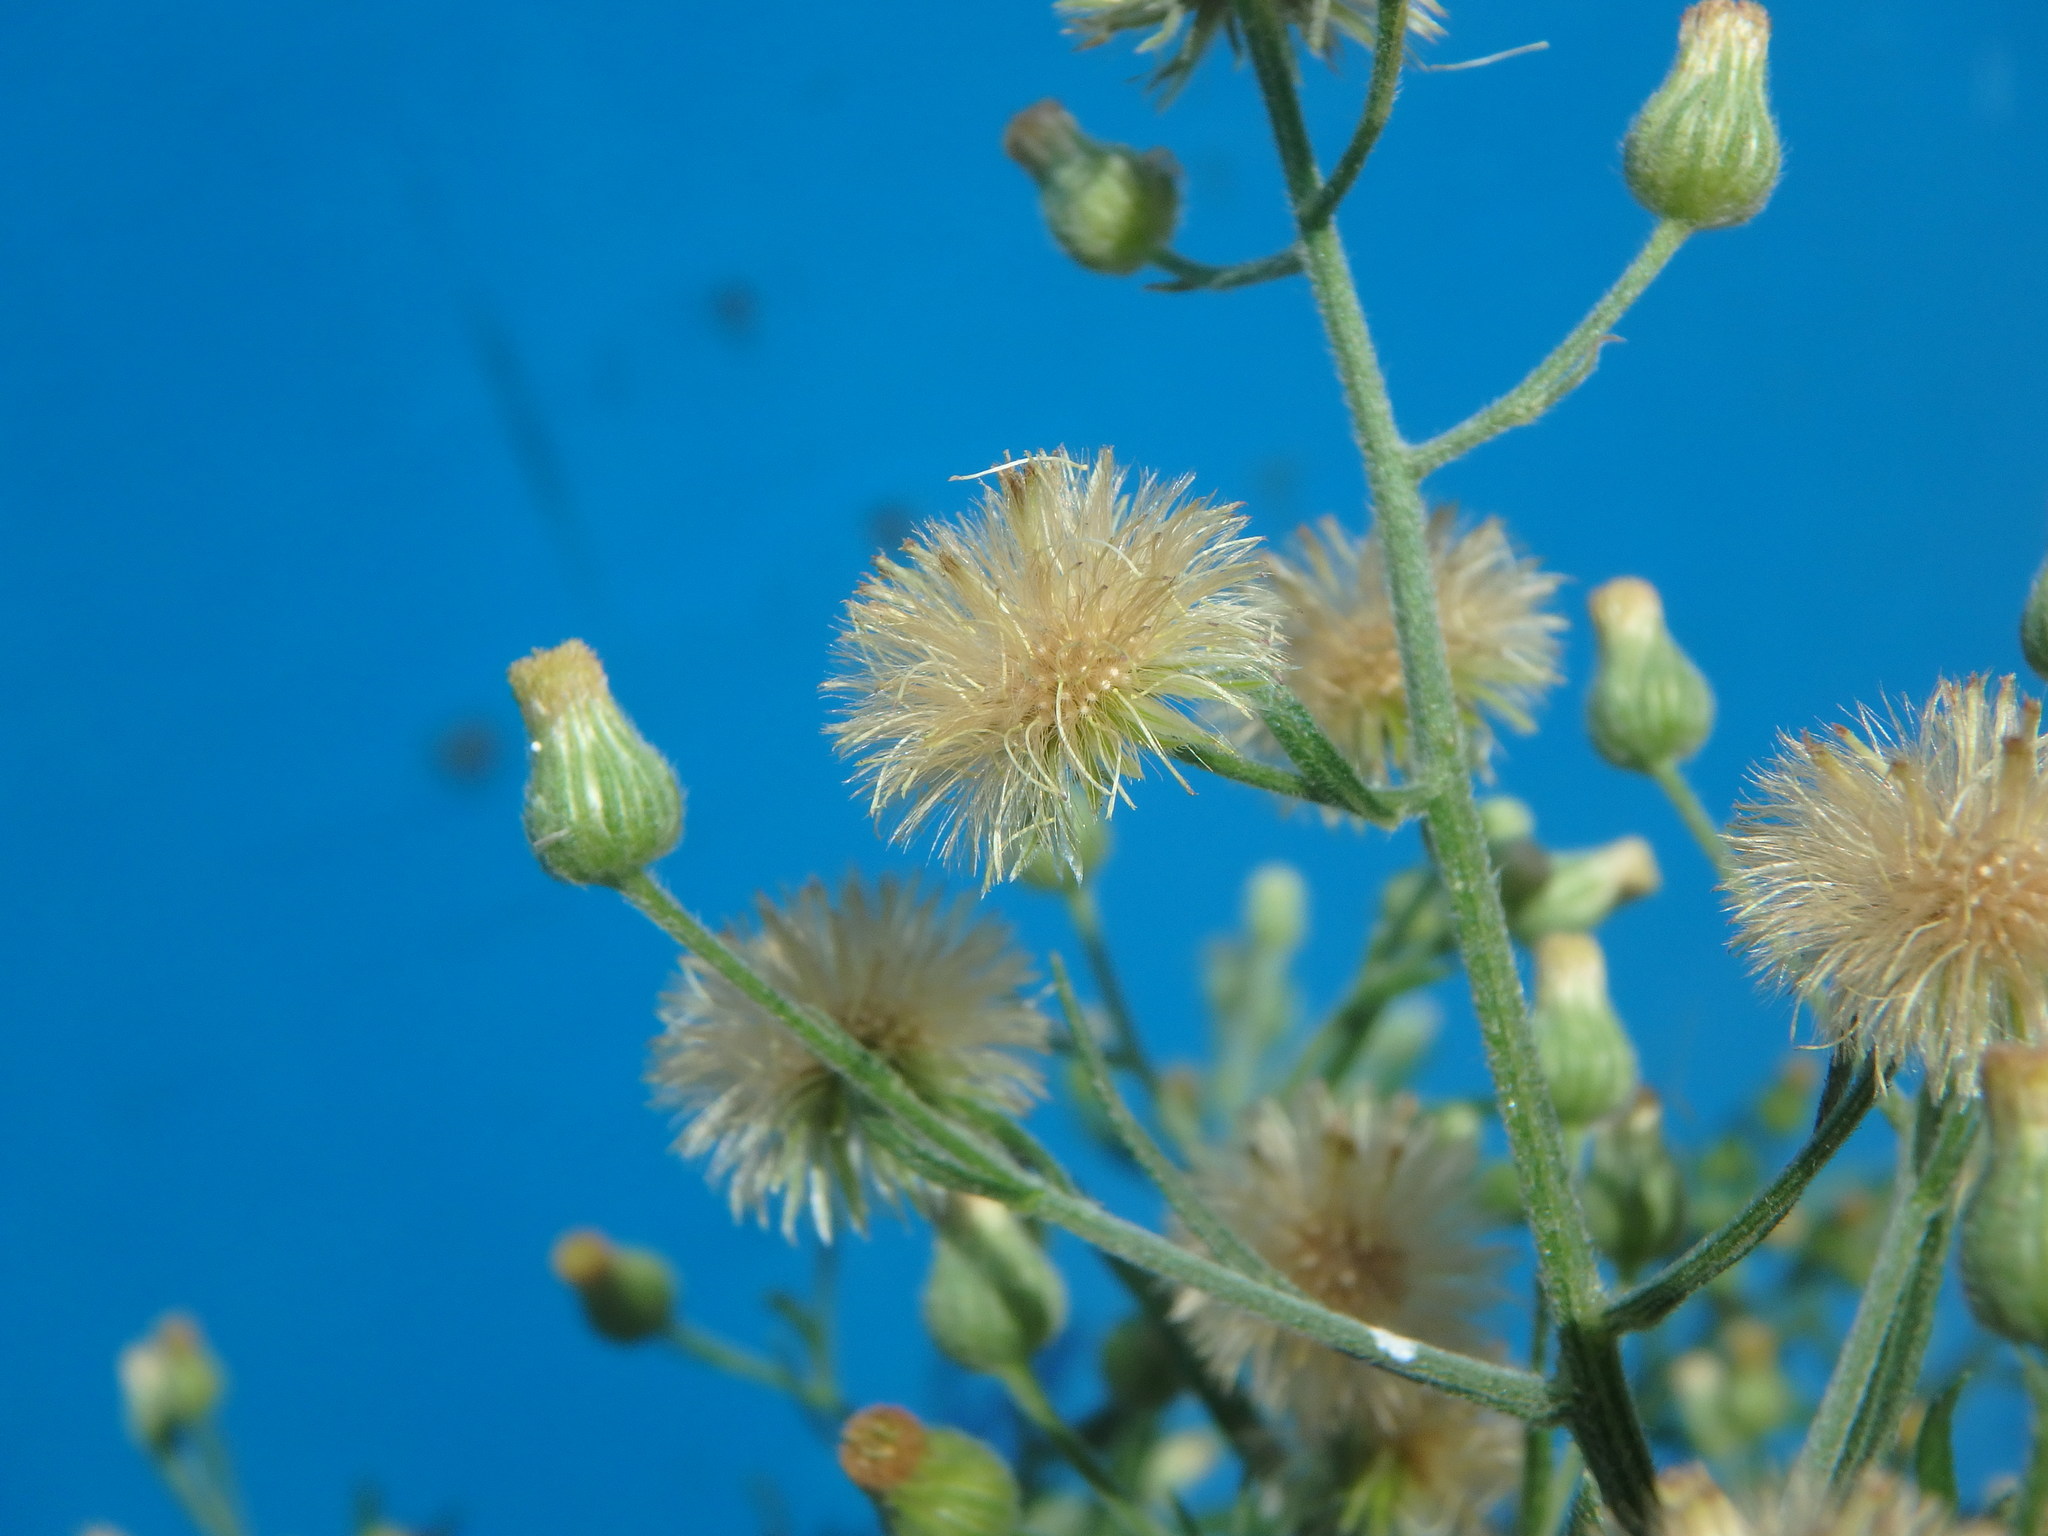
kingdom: Plantae
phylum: Tracheophyta
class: Magnoliopsida
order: Asterales
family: Asteraceae
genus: Erigeron
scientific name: Erigeron sumatrensis
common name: Daisy
